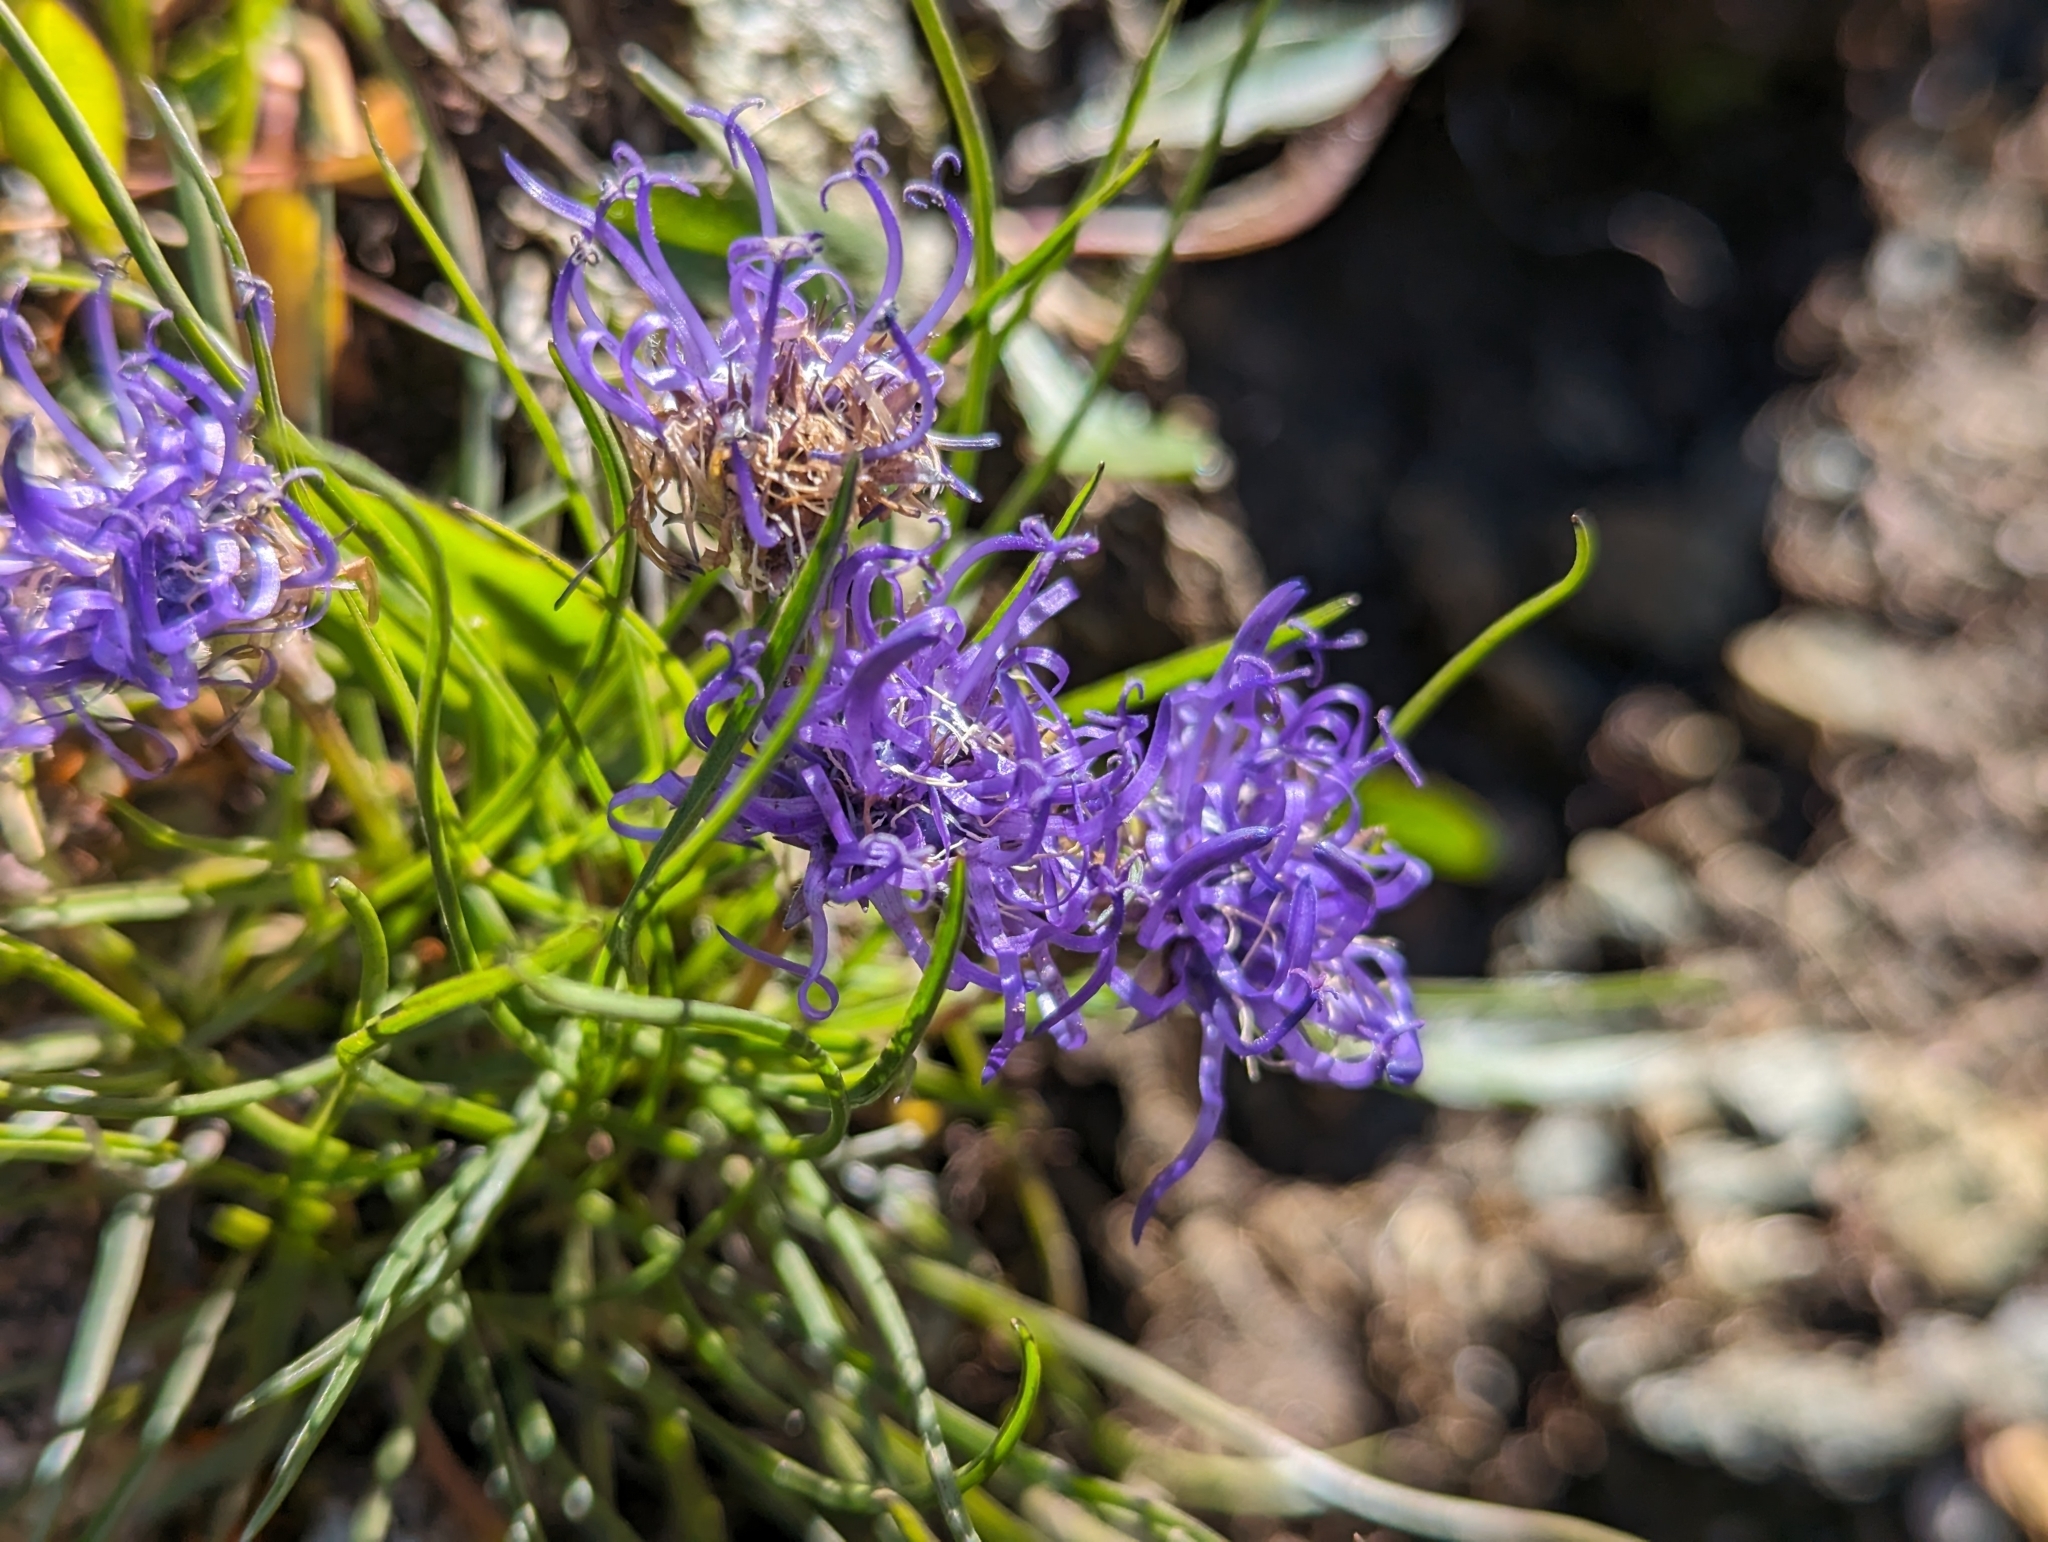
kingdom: Plantae
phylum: Tracheophyta
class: Magnoliopsida
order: Asterales
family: Campanulaceae
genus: Phyteuma
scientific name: Phyteuma hemisphaericum
